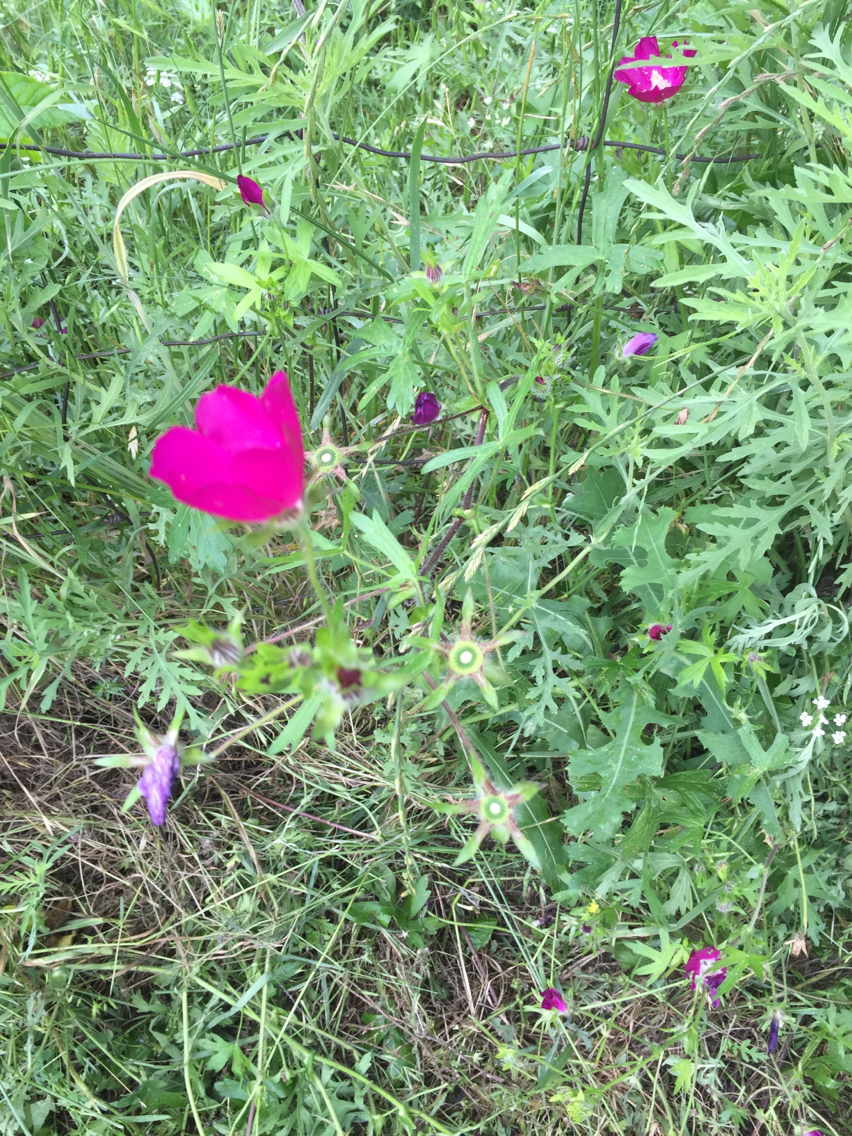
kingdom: Plantae
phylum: Tracheophyta
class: Magnoliopsida
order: Malvales
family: Malvaceae
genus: Callirhoe
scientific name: Callirhoe involucrata
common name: Purple poppy-mallow
